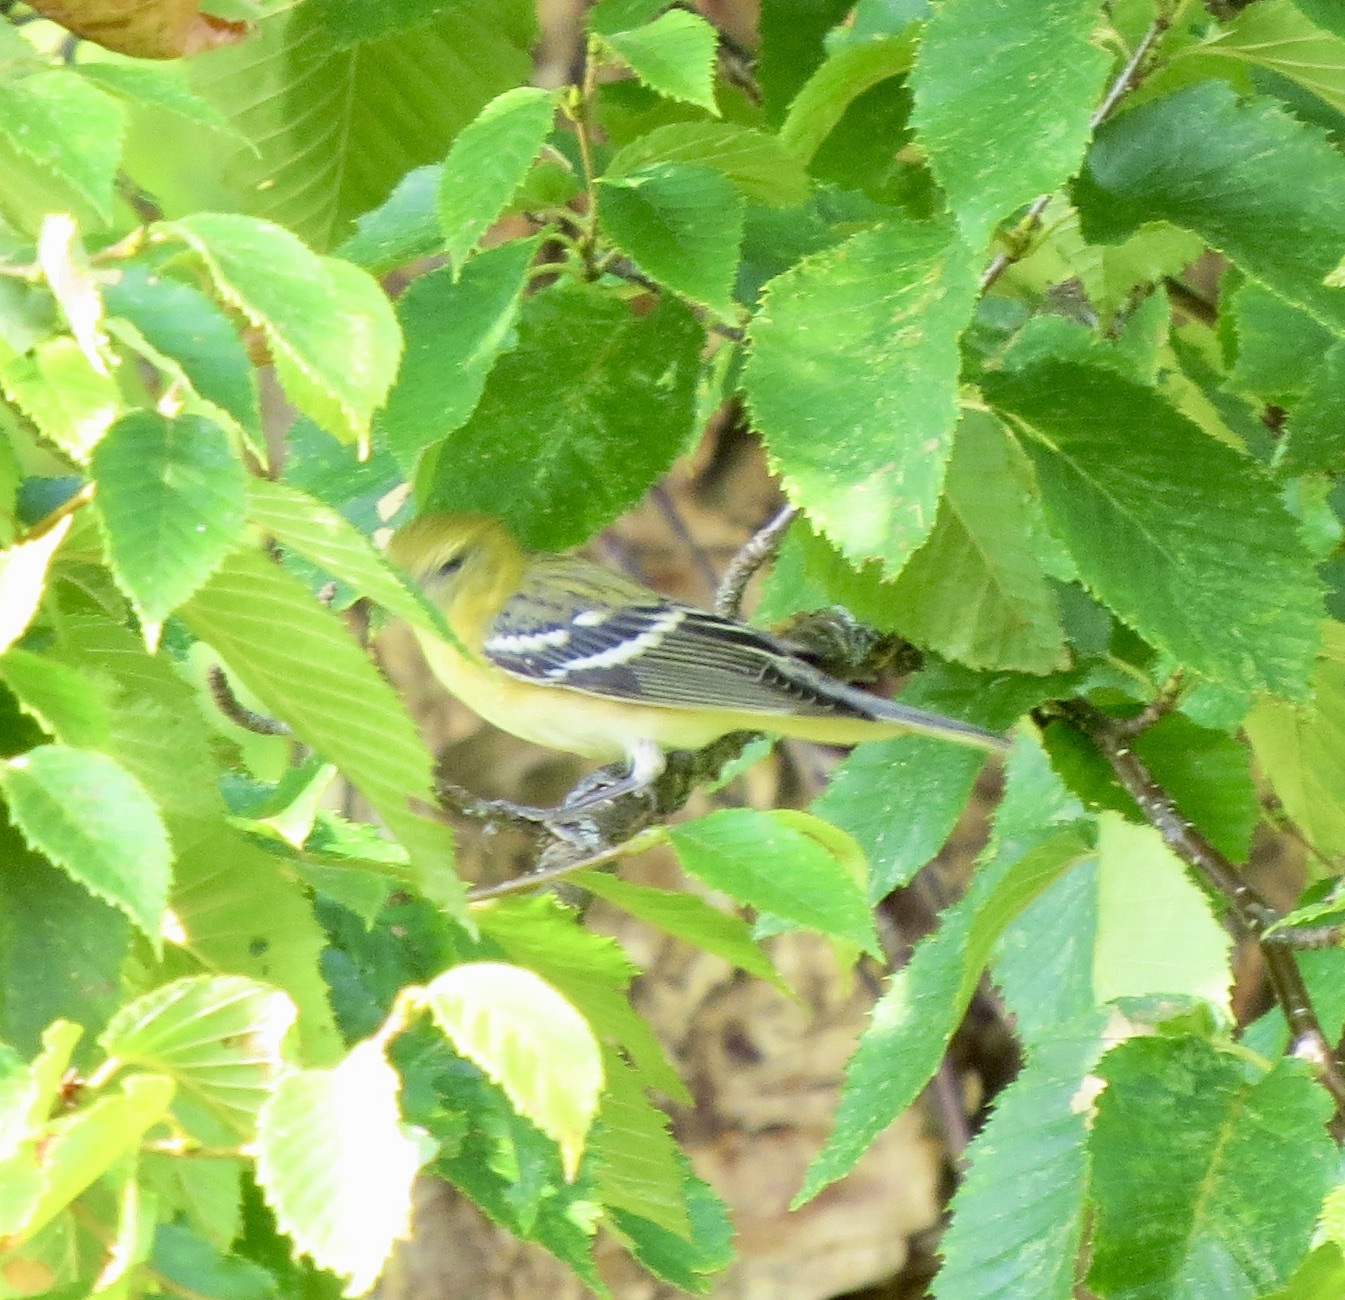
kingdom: Animalia
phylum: Chordata
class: Aves
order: Passeriformes
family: Parulidae
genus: Setophaga
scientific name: Setophaga castanea
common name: Bay-breasted warbler
